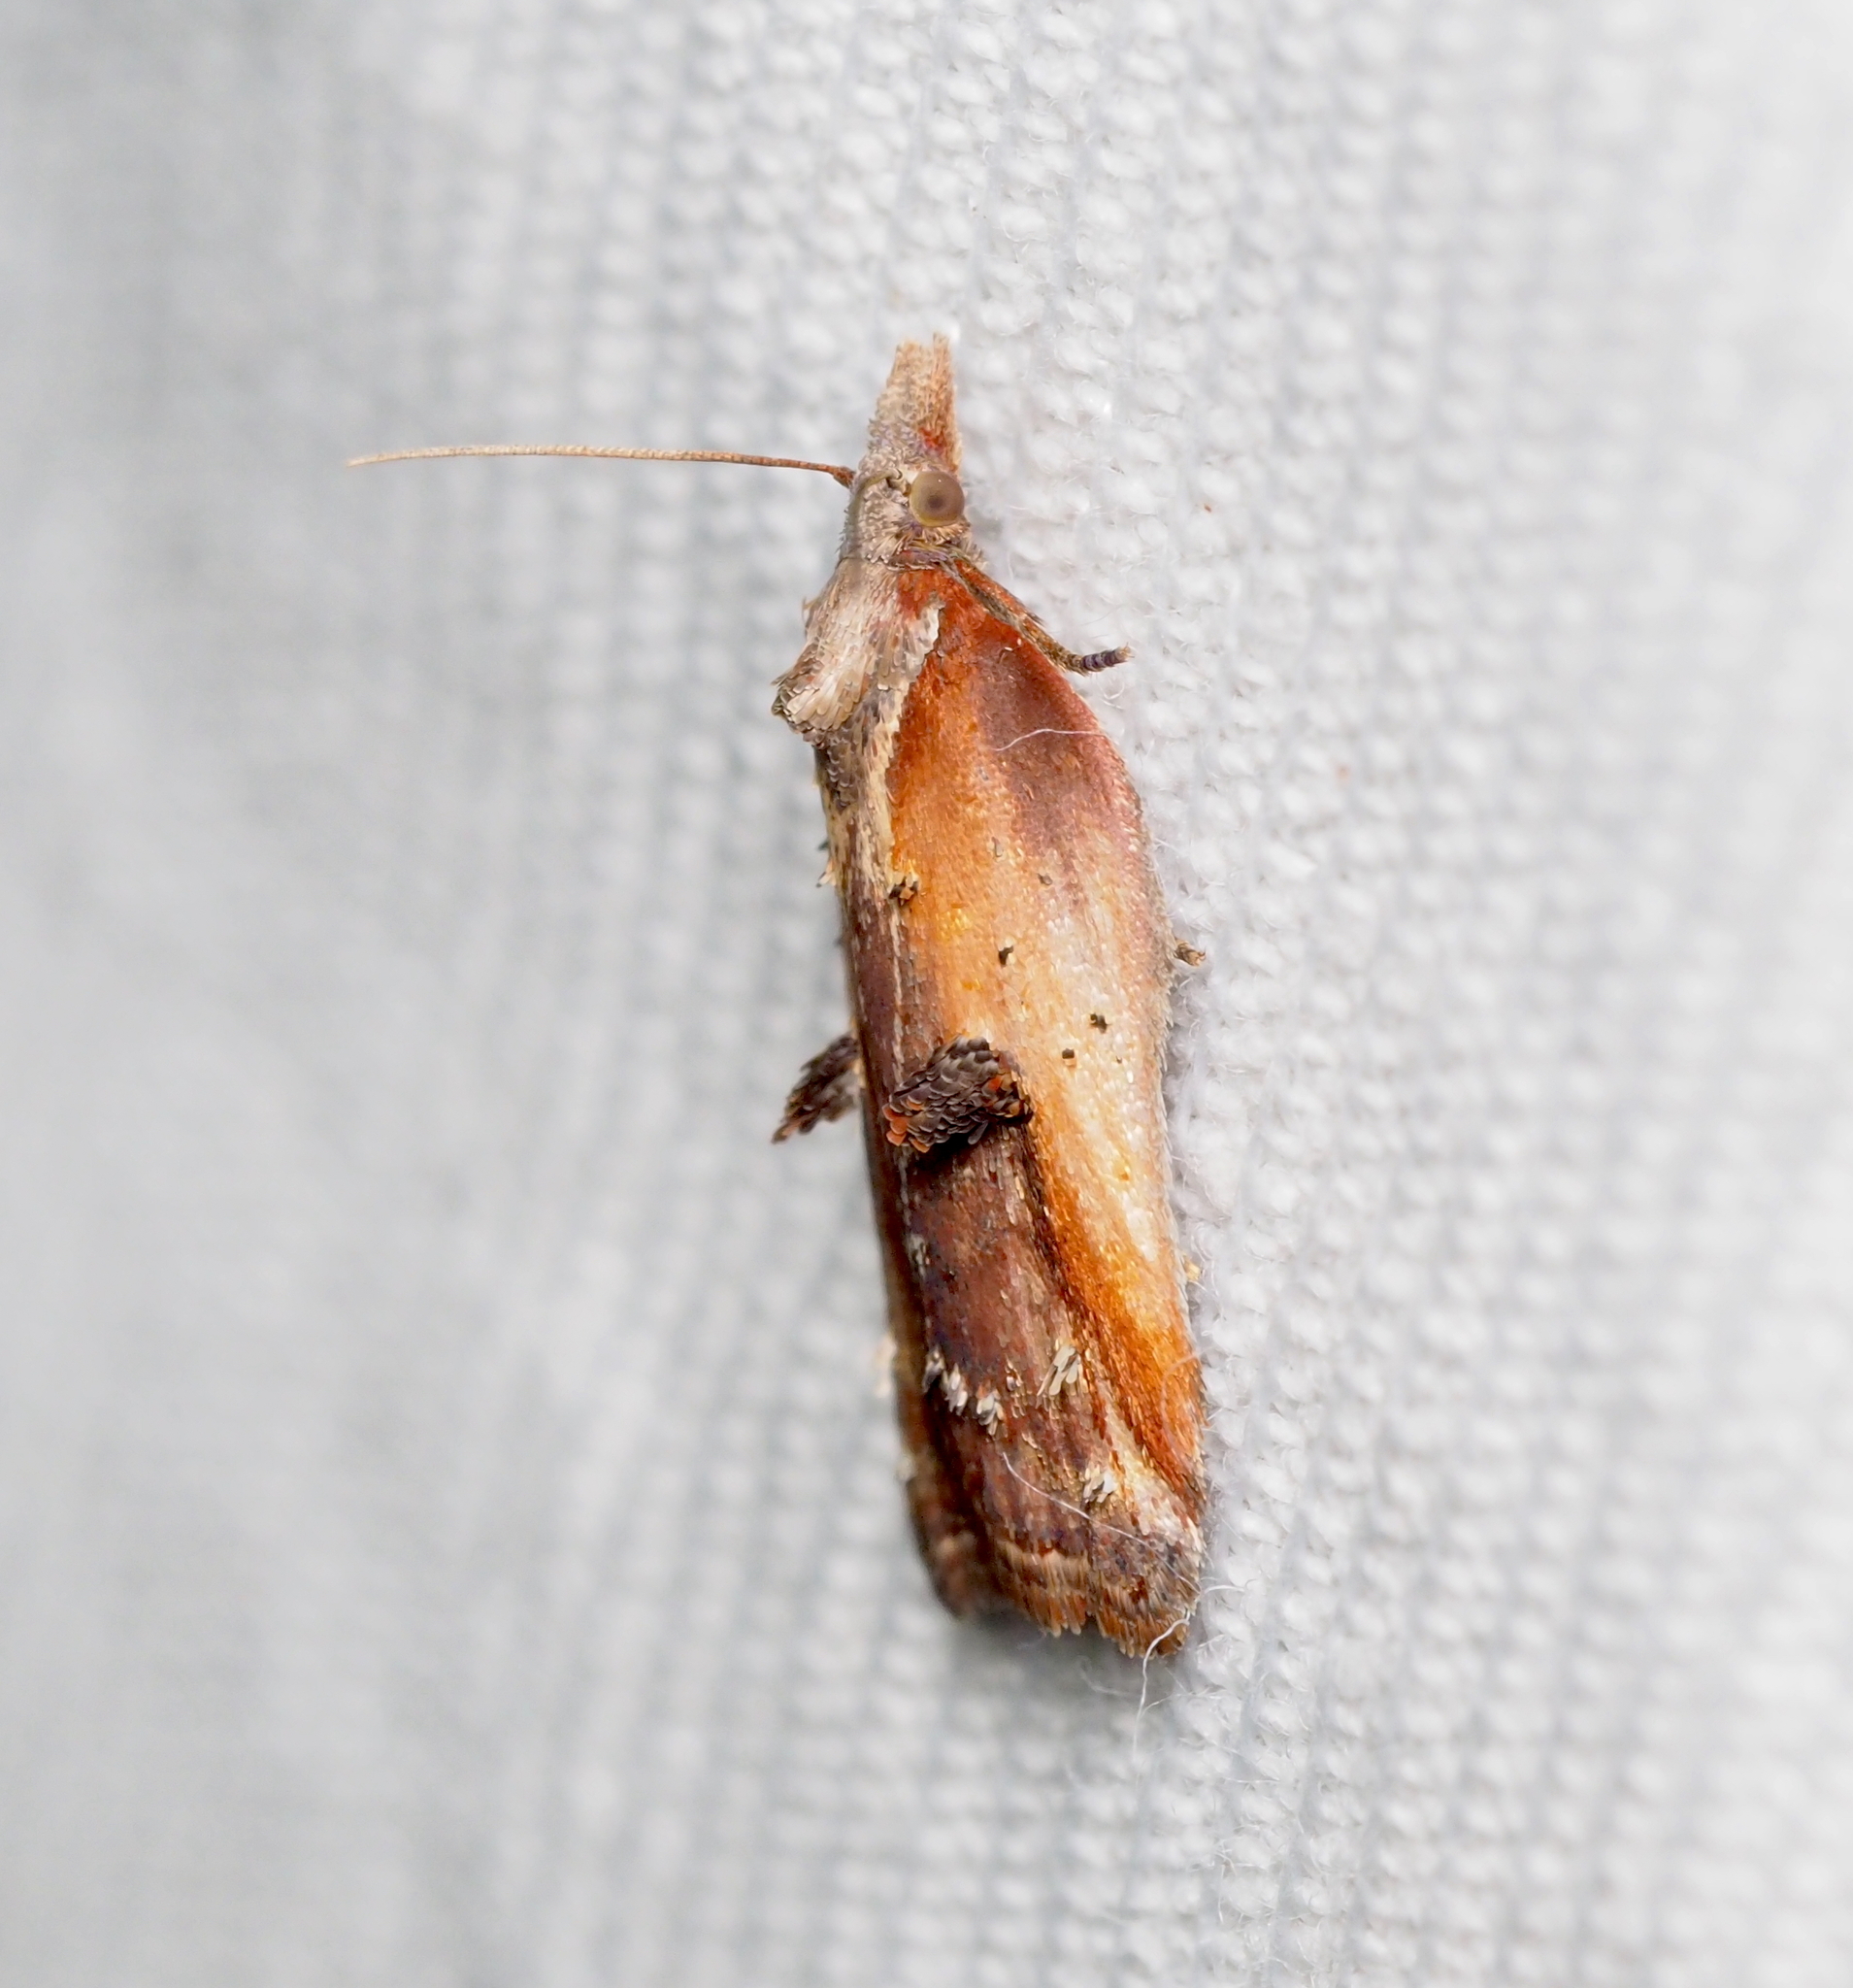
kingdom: Animalia
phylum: Arthropoda
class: Insecta
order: Lepidoptera
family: Tortricidae
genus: Acleris
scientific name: Acleris cristana
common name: Tufted button
